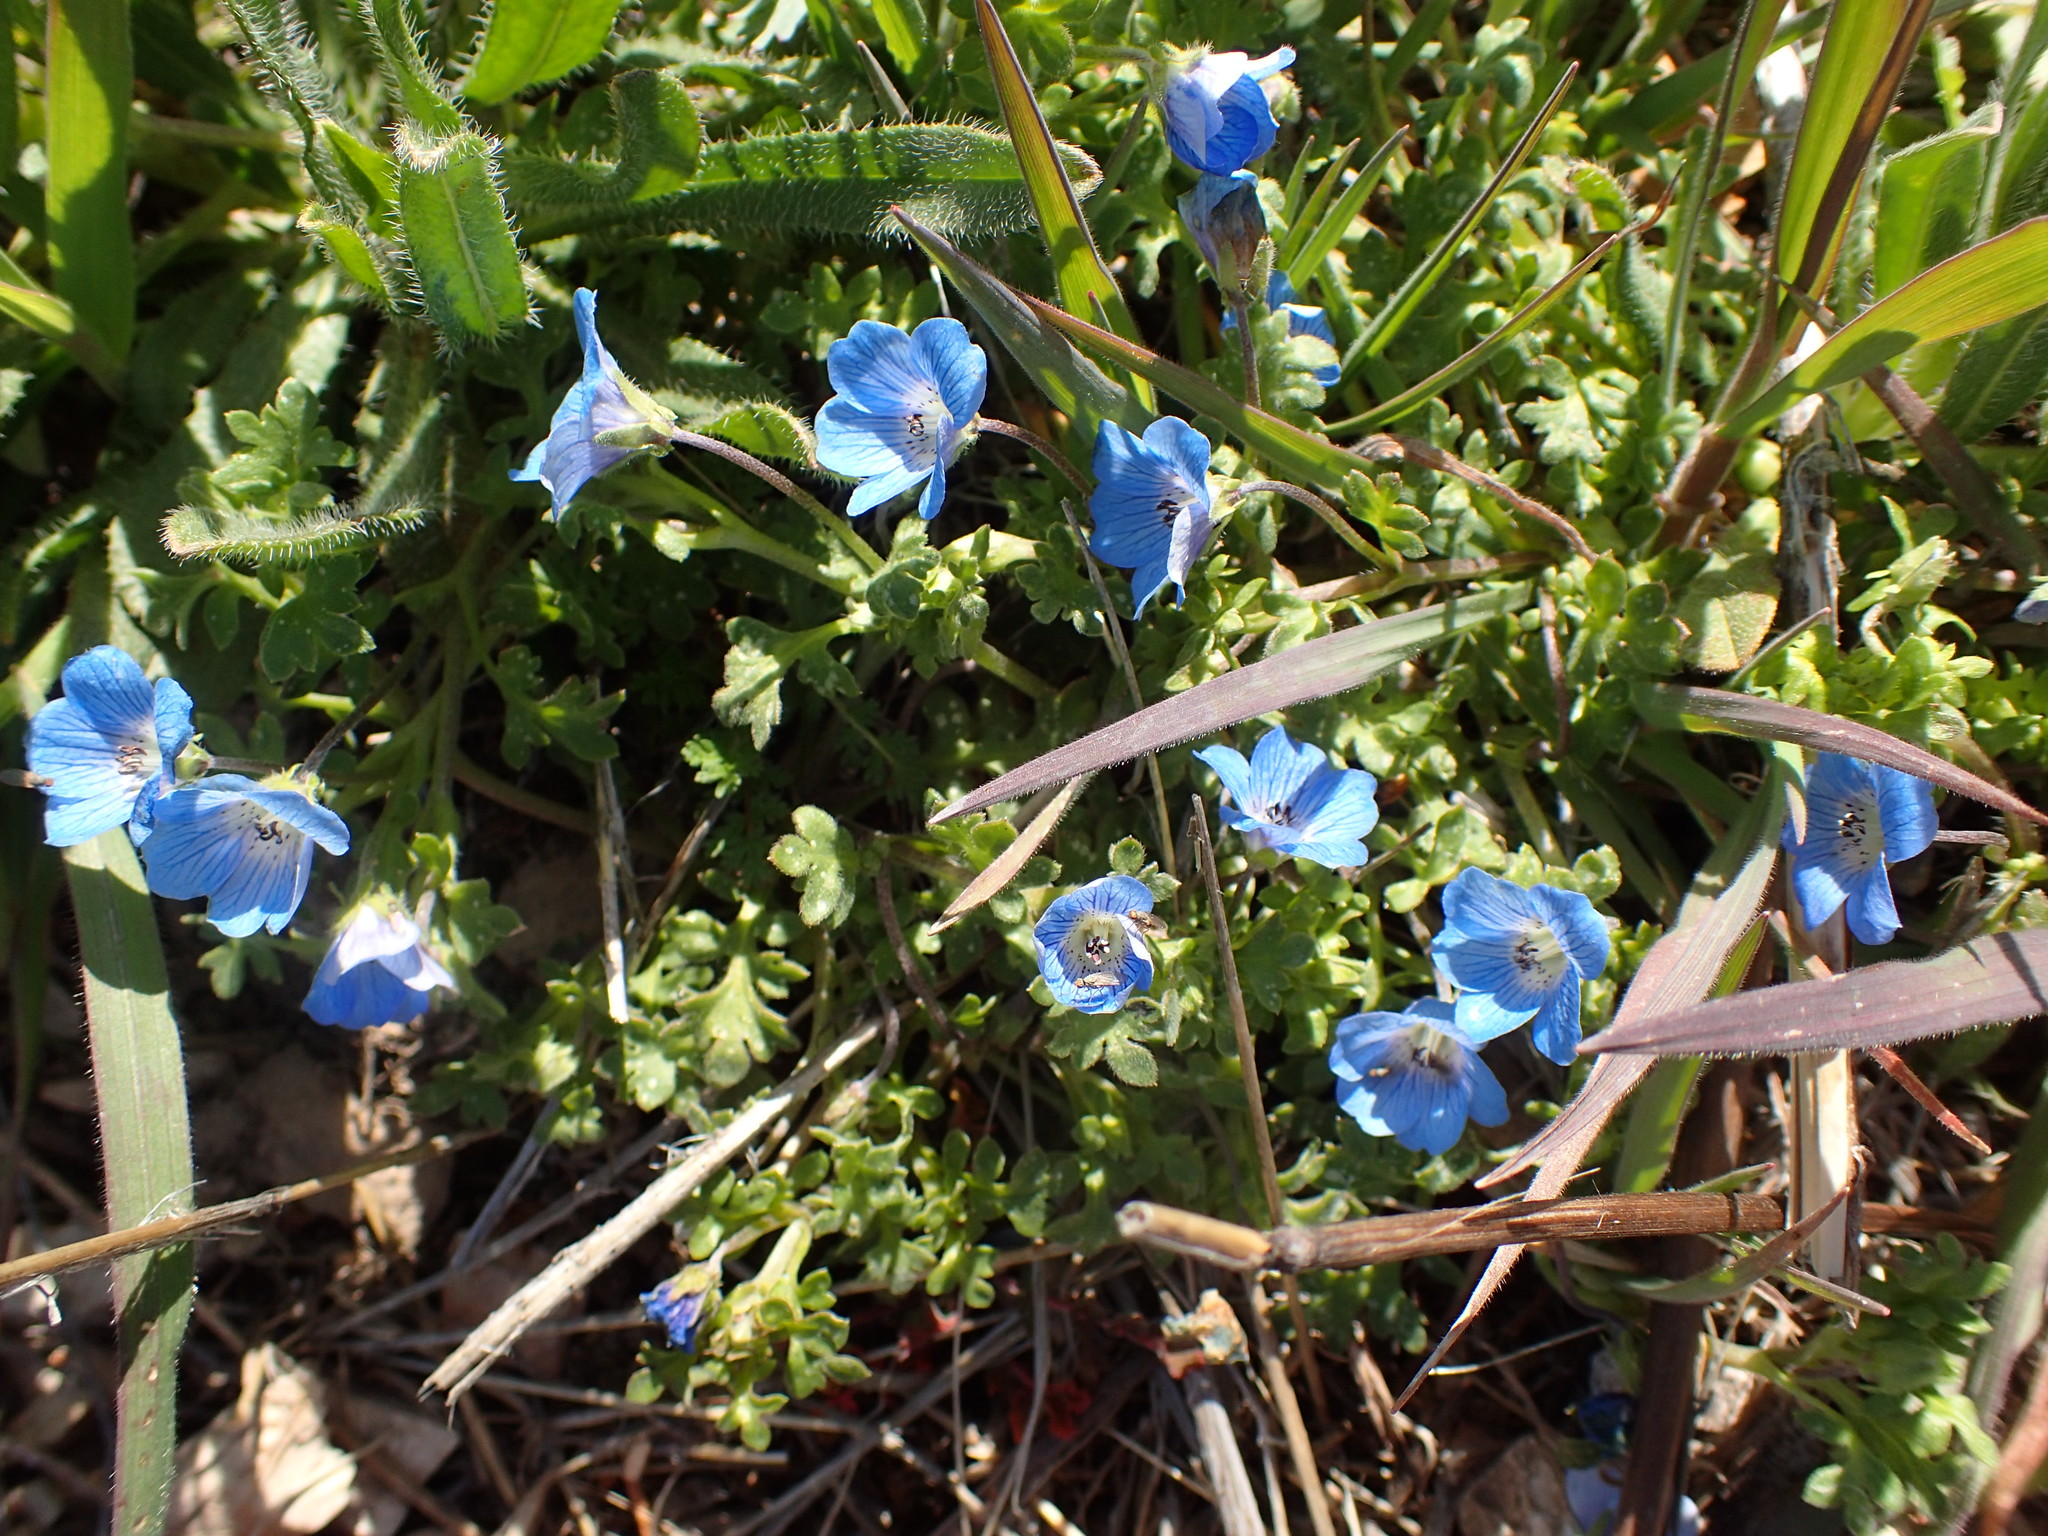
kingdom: Plantae
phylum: Tracheophyta
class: Magnoliopsida
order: Boraginales
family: Hydrophyllaceae
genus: Nemophila
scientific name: Nemophila menziesii
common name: Baby's-blue-eyes
